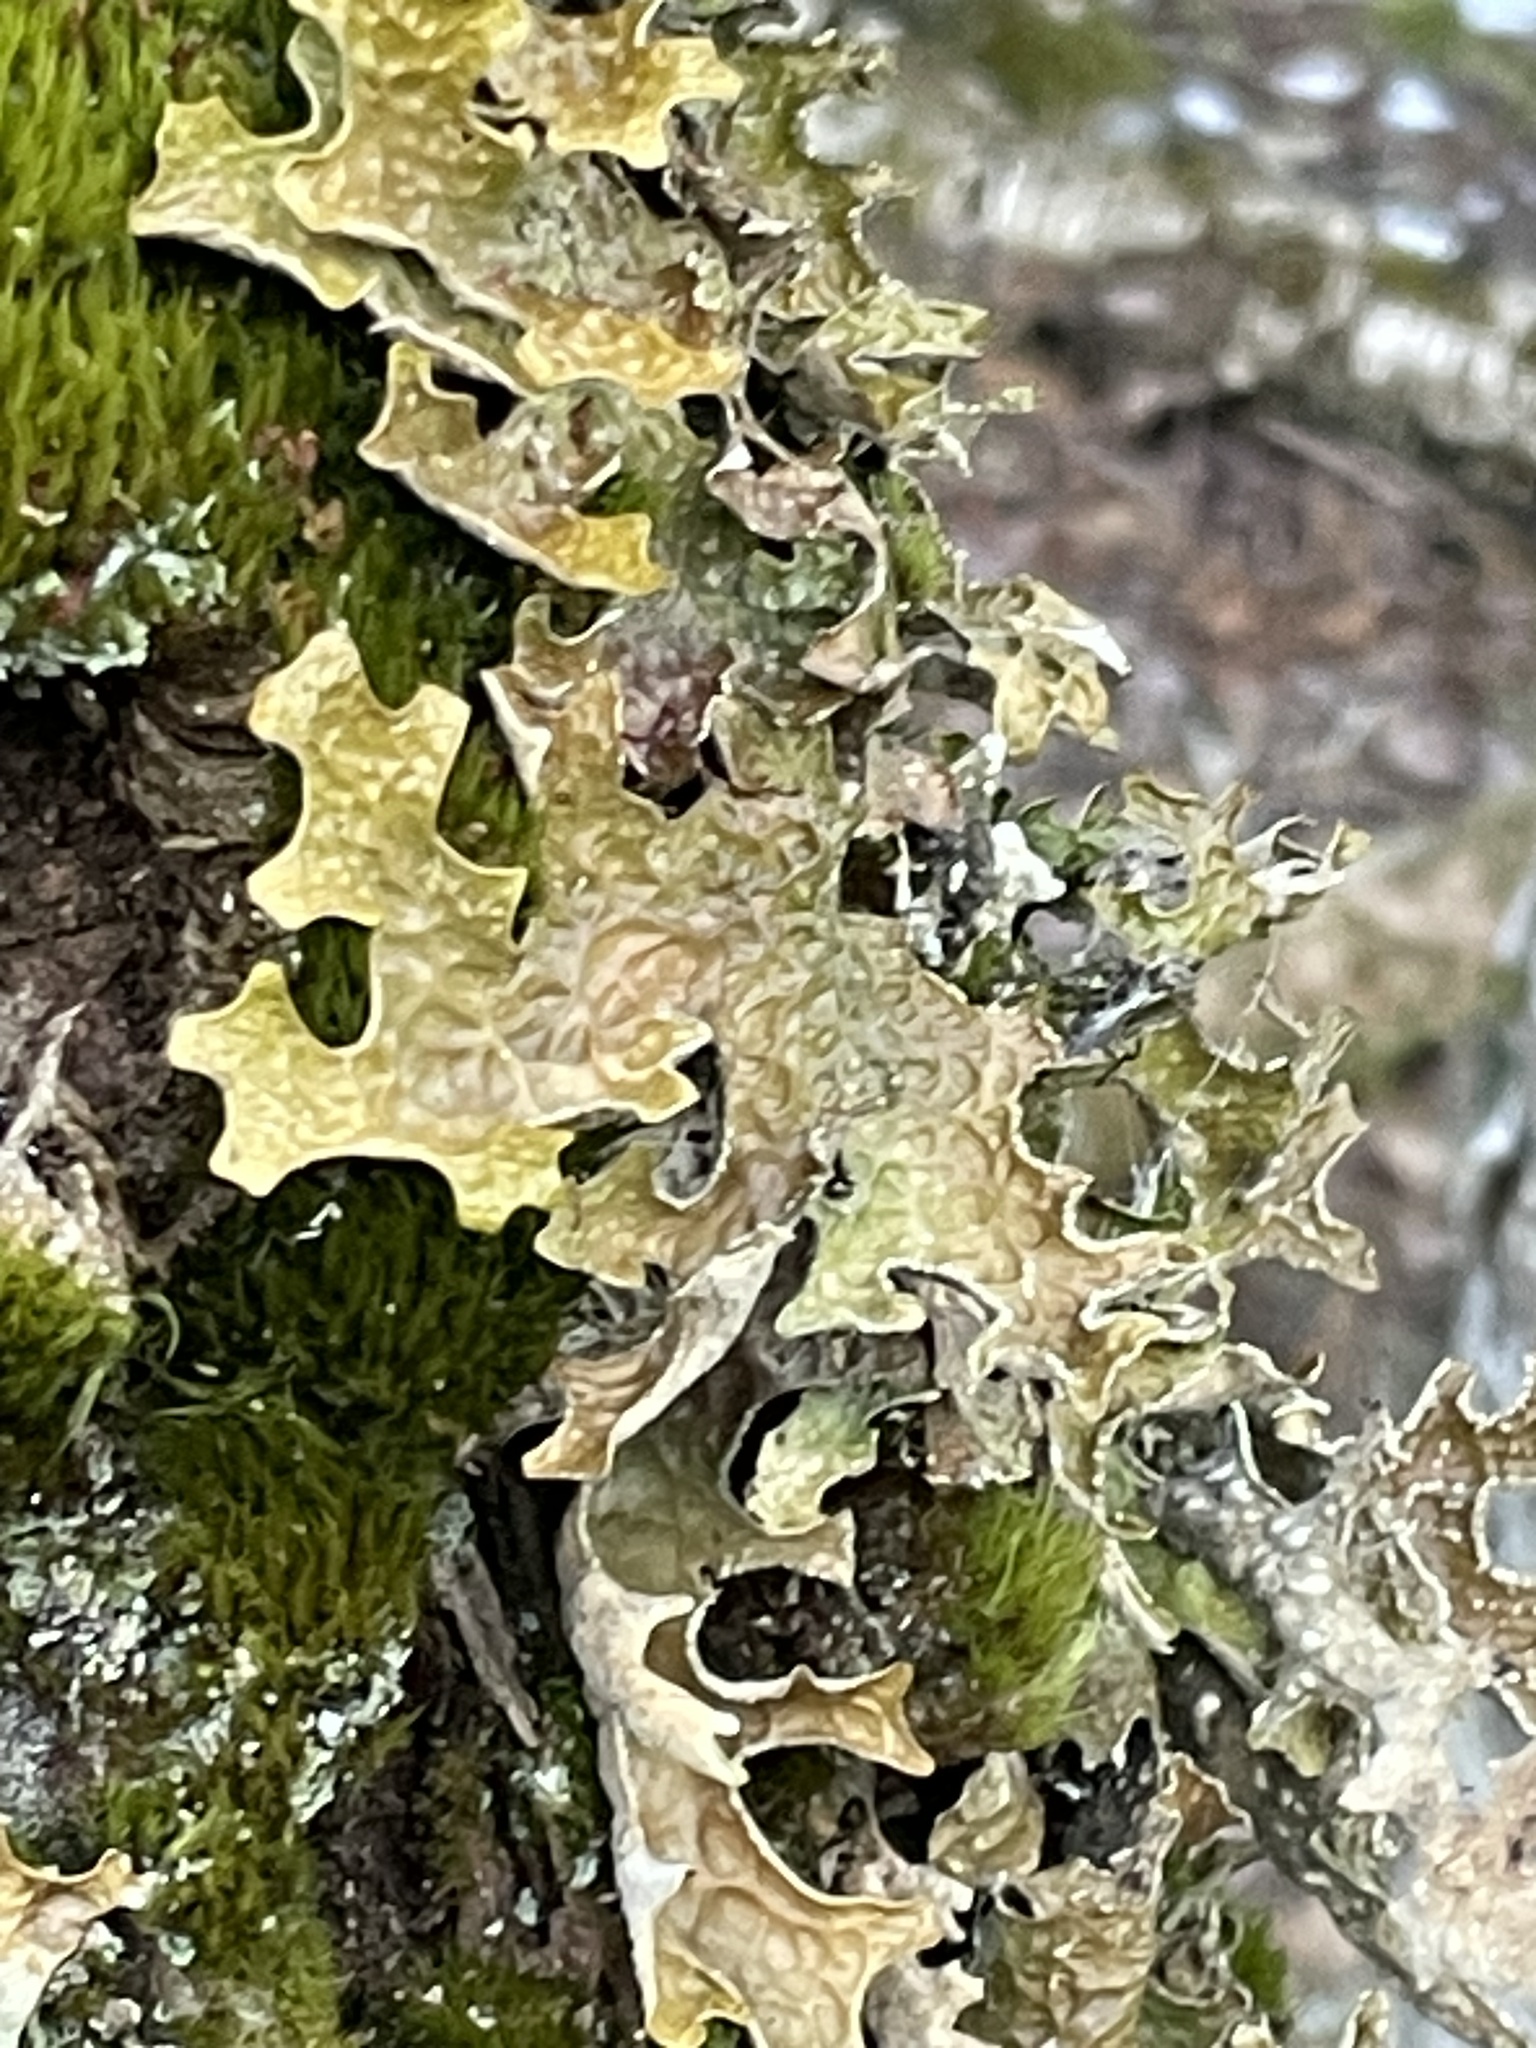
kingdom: Fungi
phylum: Ascomycota
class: Lecanoromycetes
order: Peltigerales
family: Lobariaceae
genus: Lobaria
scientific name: Lobaria pulmonaria
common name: Lungwort
